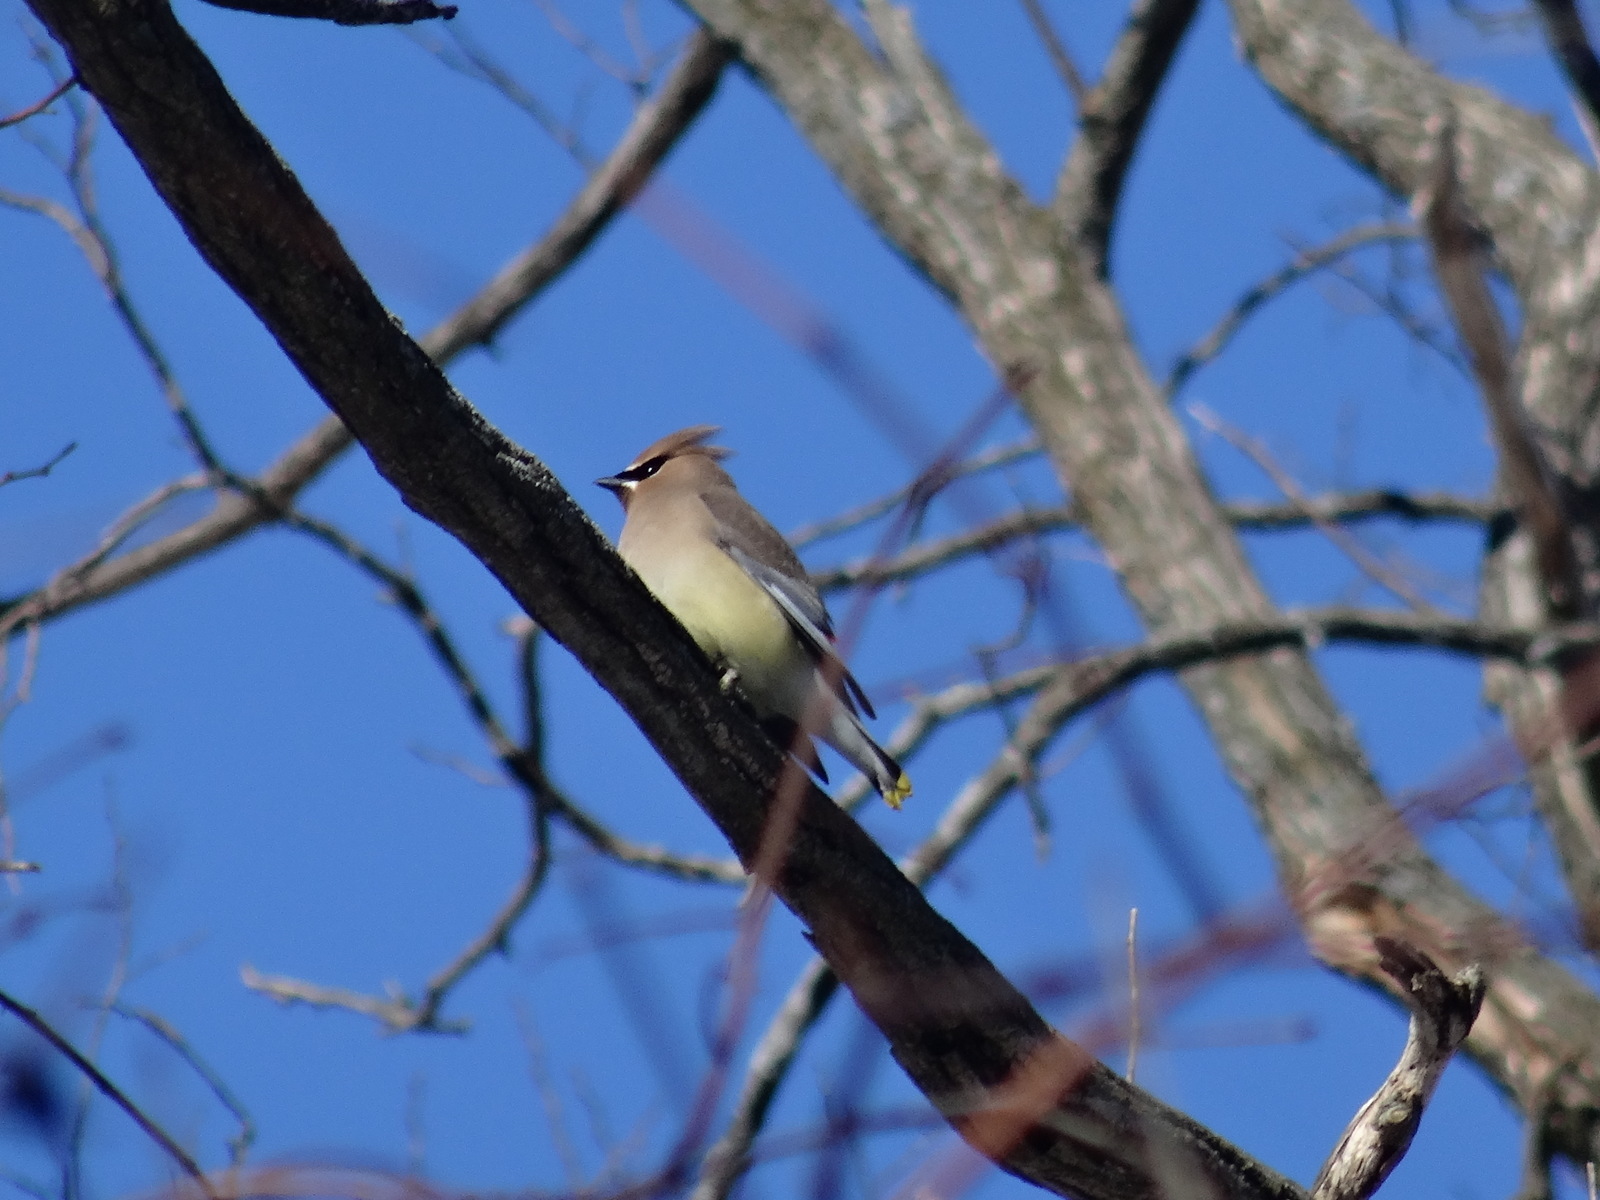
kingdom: Animalia
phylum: Chordata
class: Aves
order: Passeriformes
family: Bombycillidae
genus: Bombycilla
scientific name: Bombycilla cedrorum
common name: Cedar waxwing
